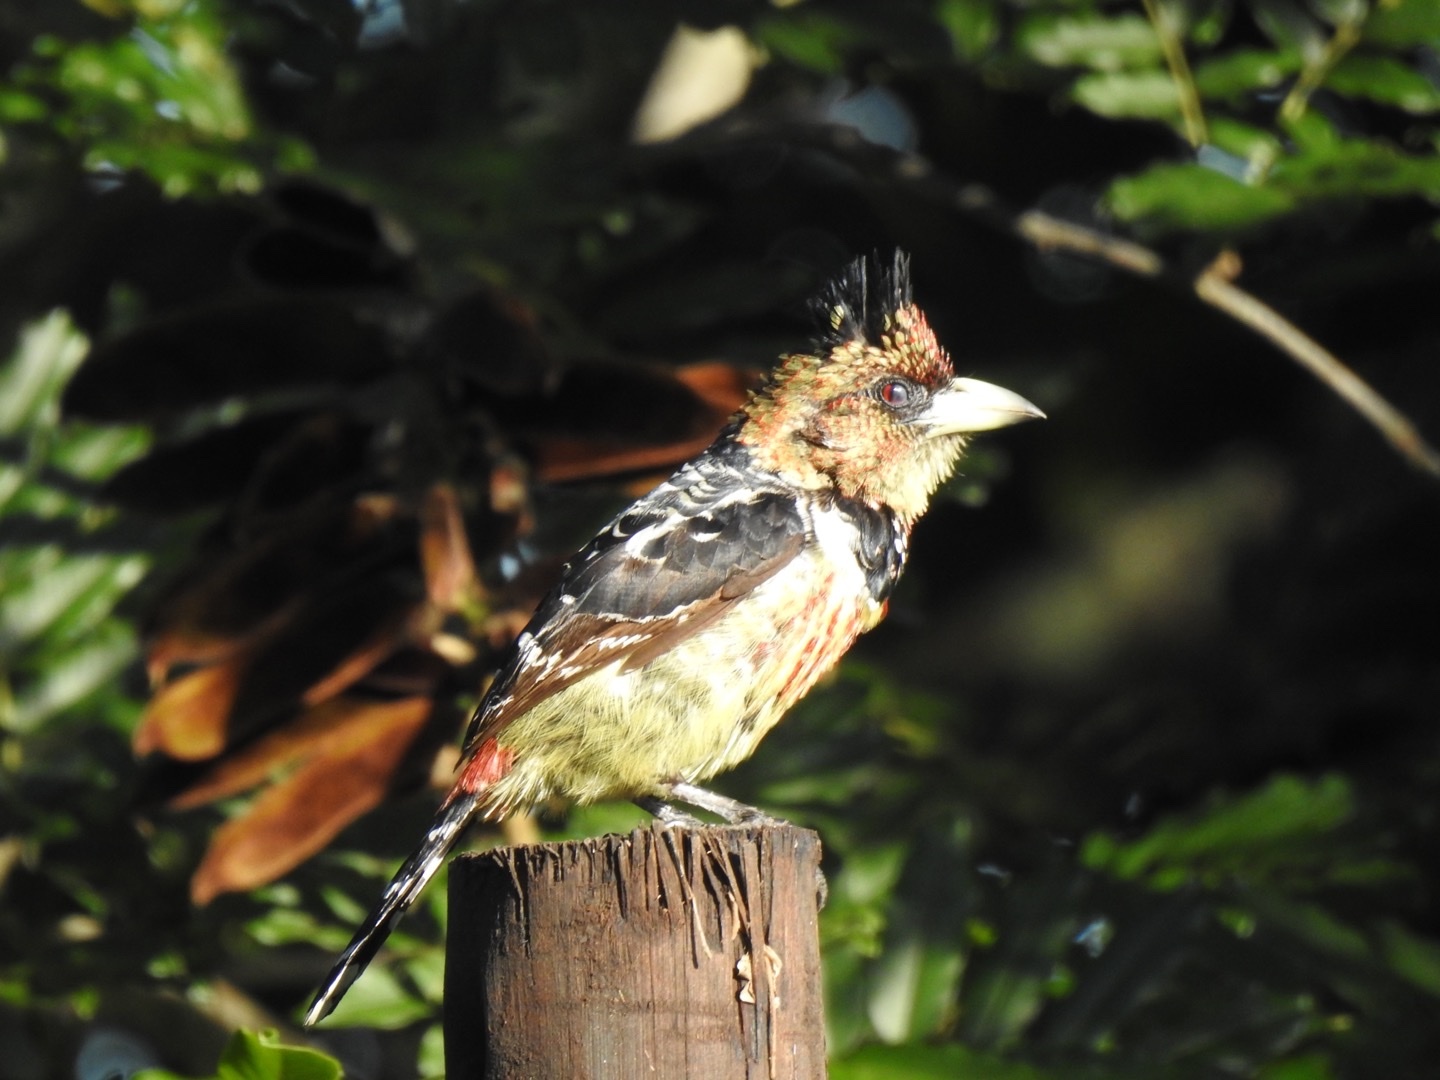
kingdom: Animalia
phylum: Chordata
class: Aves
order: Piciformes
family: Lybiidae
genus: Trachyphonus
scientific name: Trachyphonus vaillantii
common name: Crested barbet
